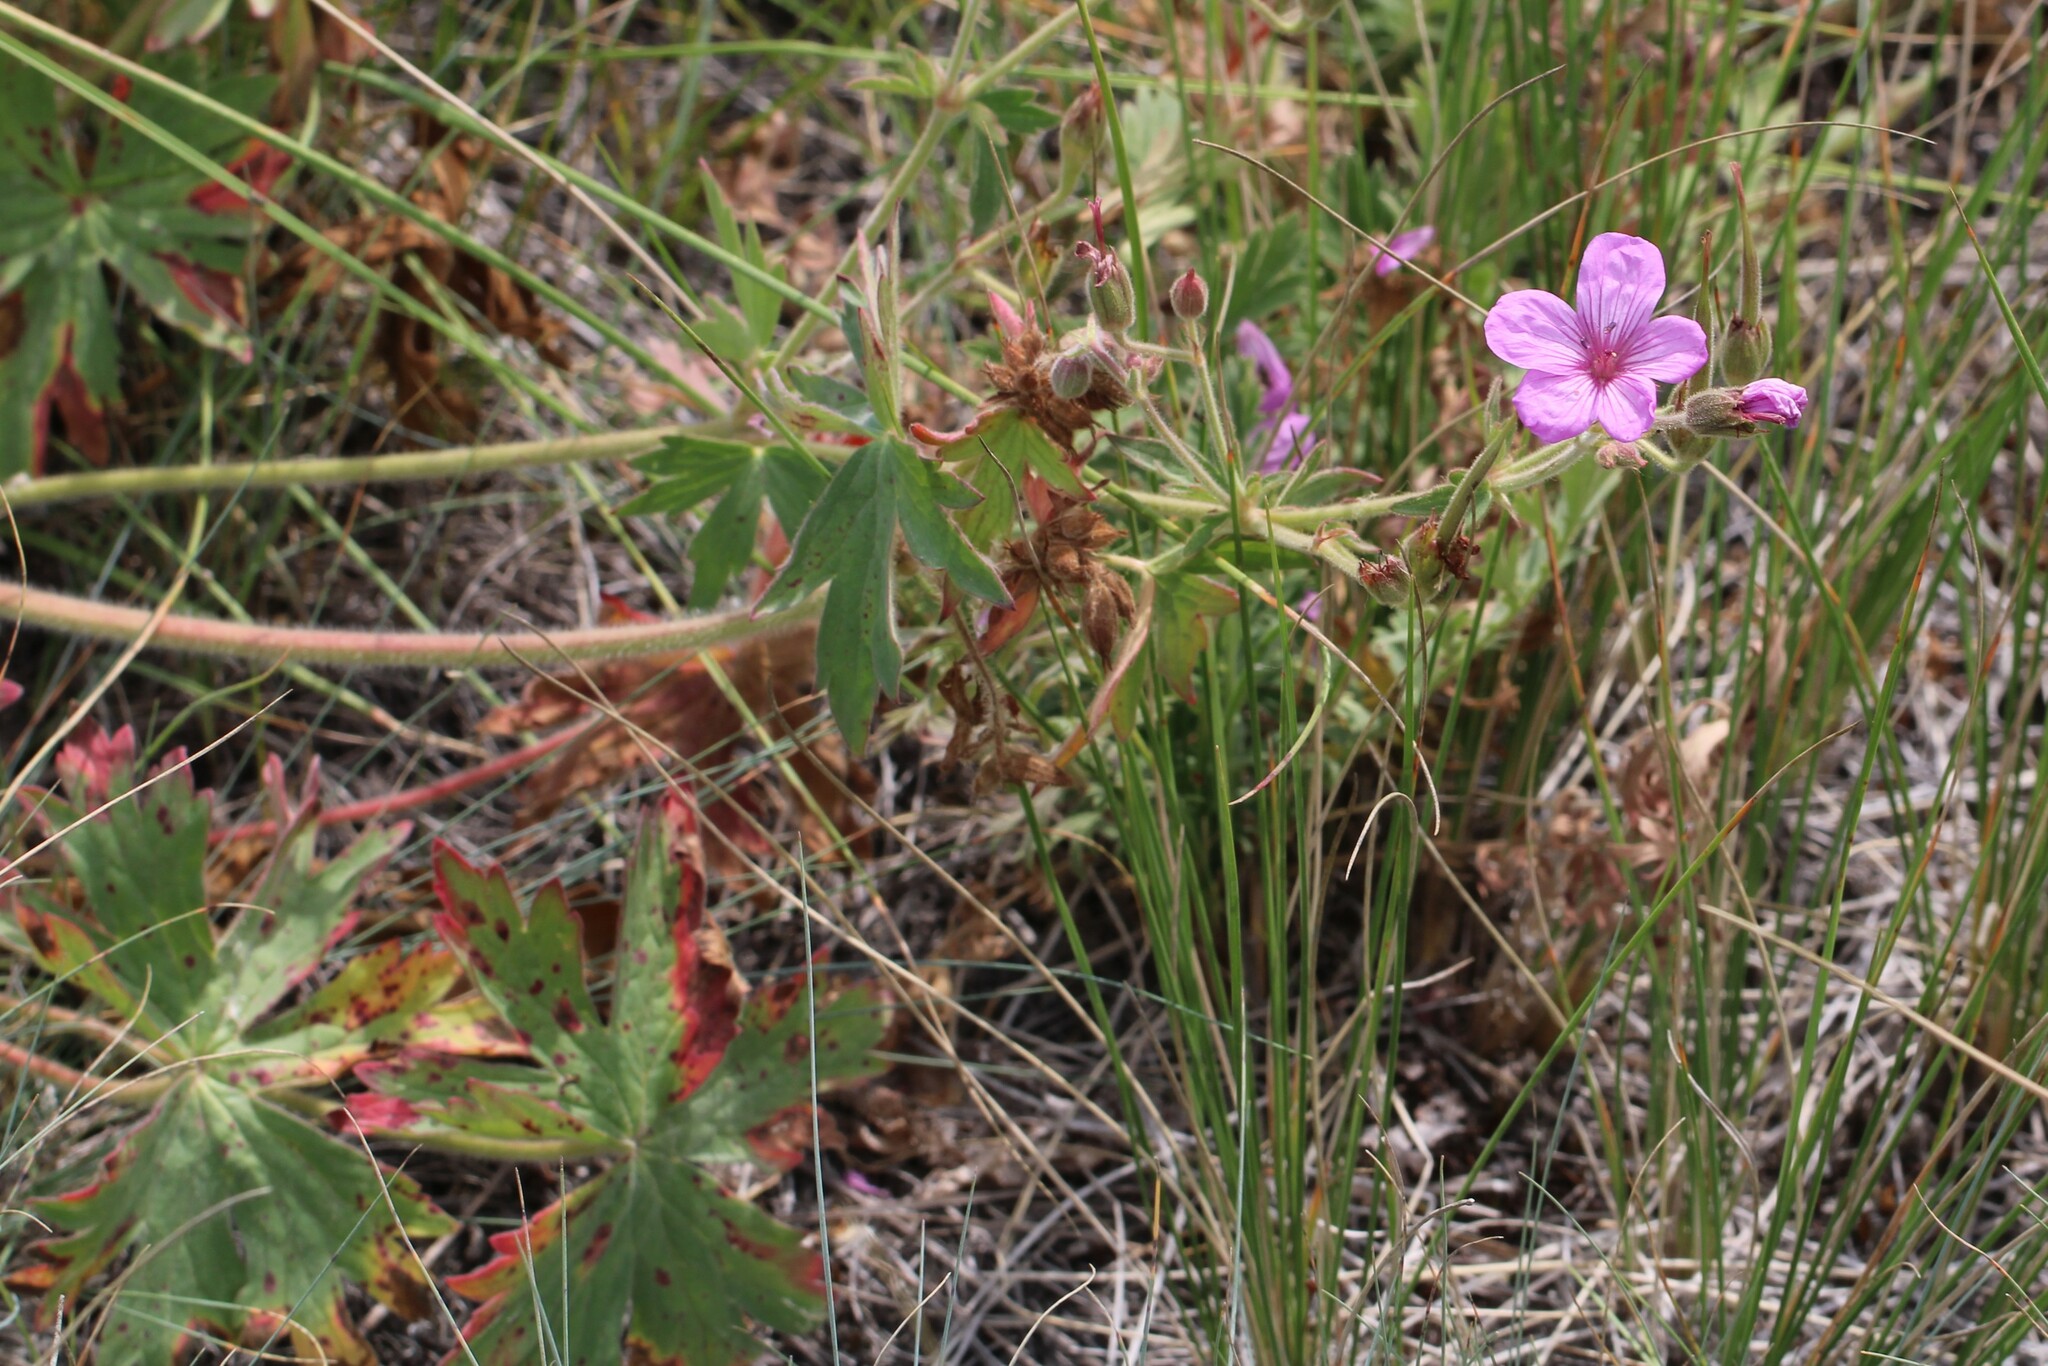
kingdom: Plantae
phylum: Tracheophyta
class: Magnoliopsida
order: Geraniales
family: Geraniaceae
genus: Geranium
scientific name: Geranium viscosissimum
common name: Purple geranium
